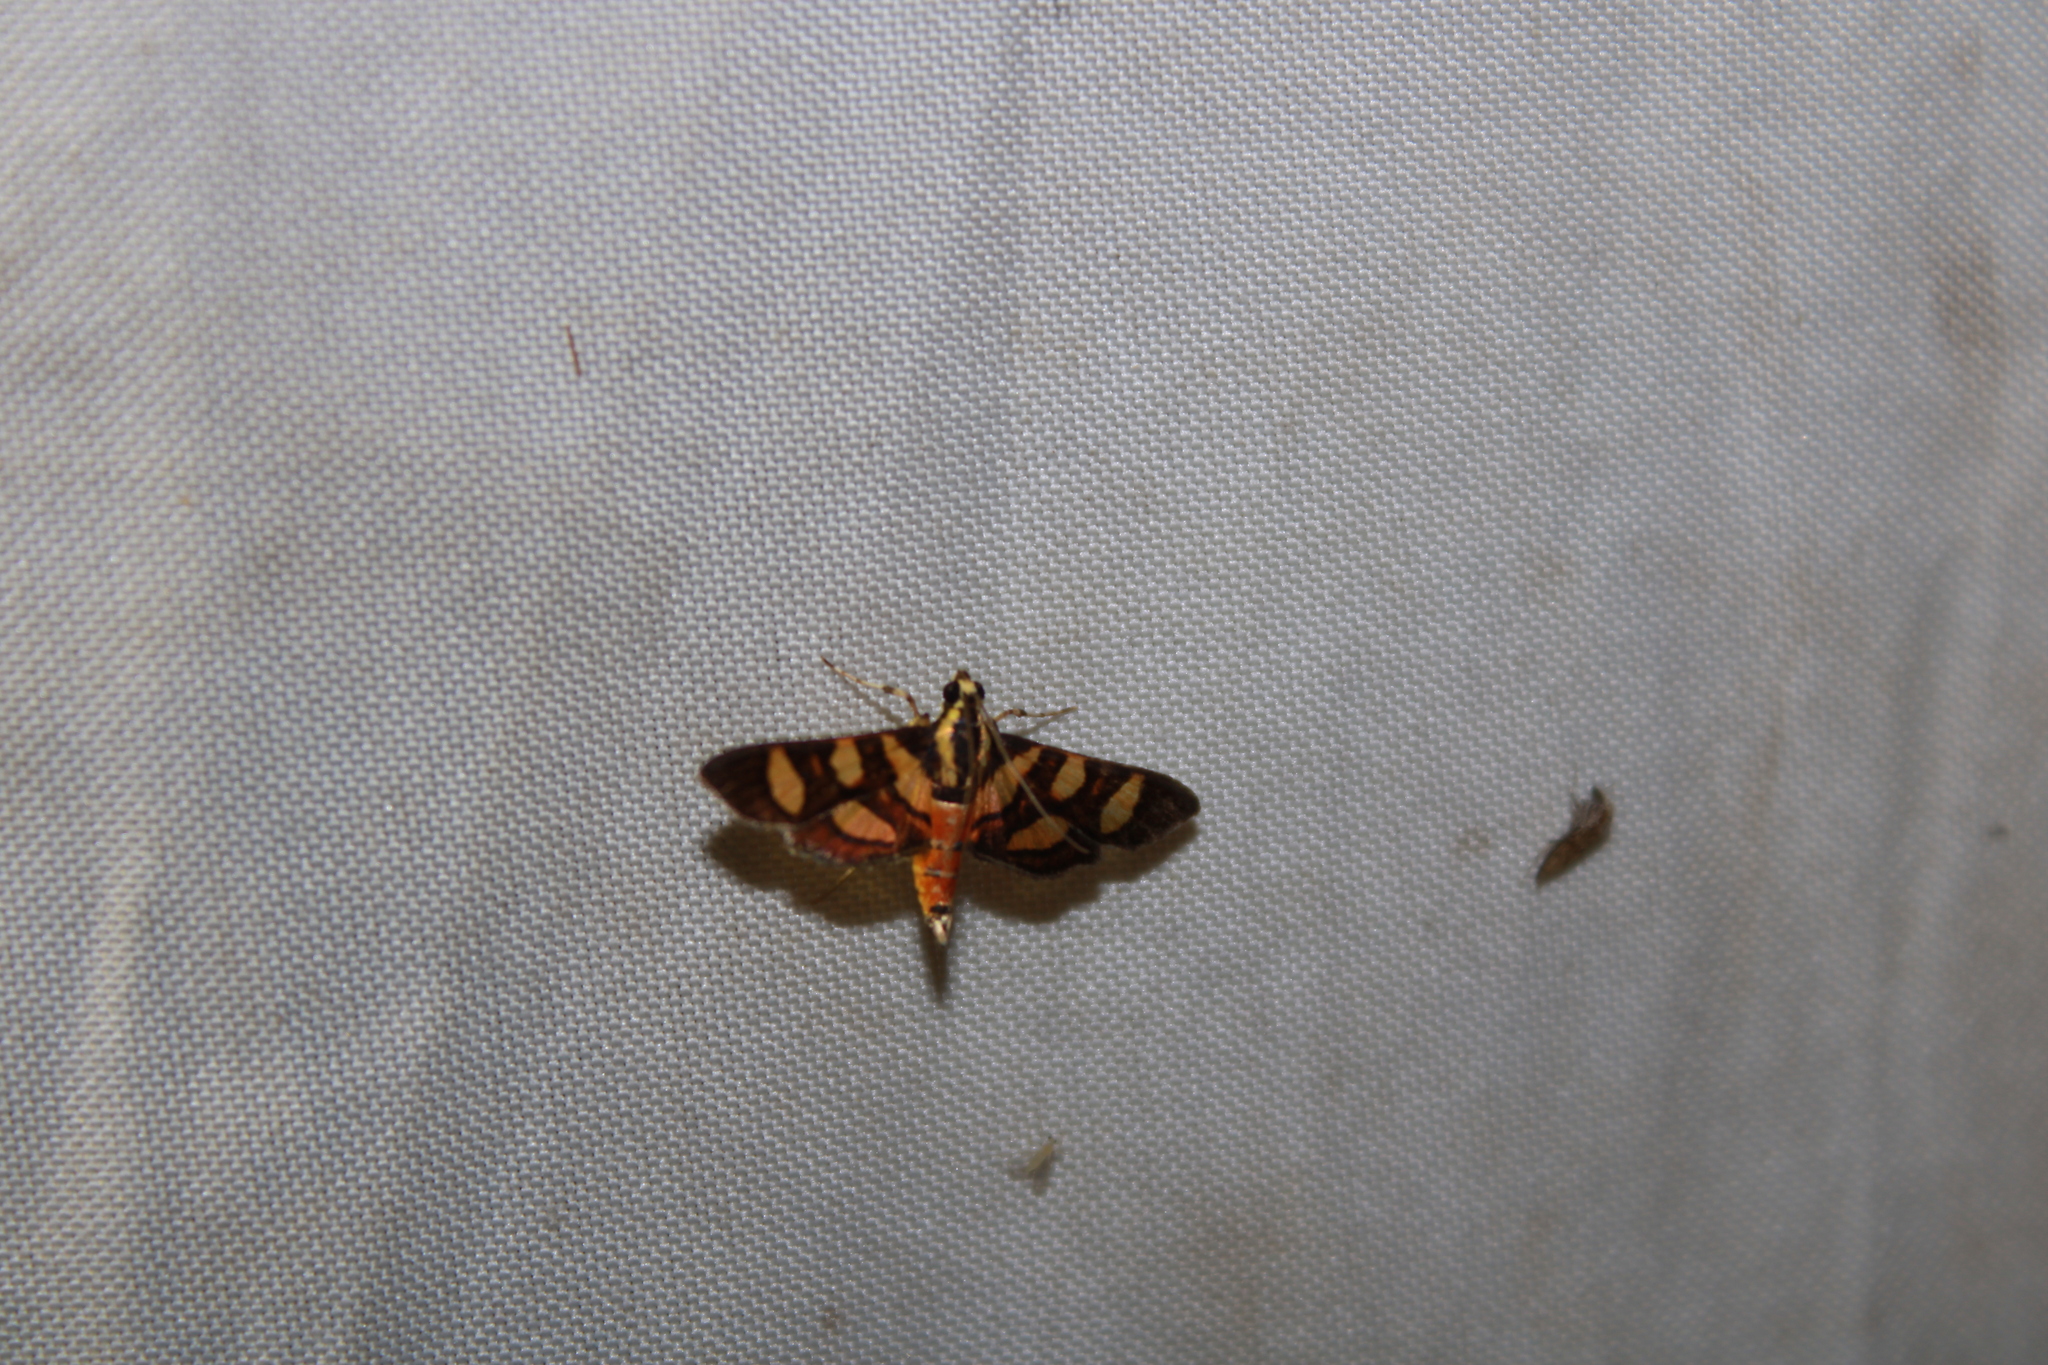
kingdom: Animalia
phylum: Arthropoda
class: Insecta
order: Lepidoptera
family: Crambidae
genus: Syngamia
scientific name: Syngamia florella
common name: Orange-spotted flower moth
